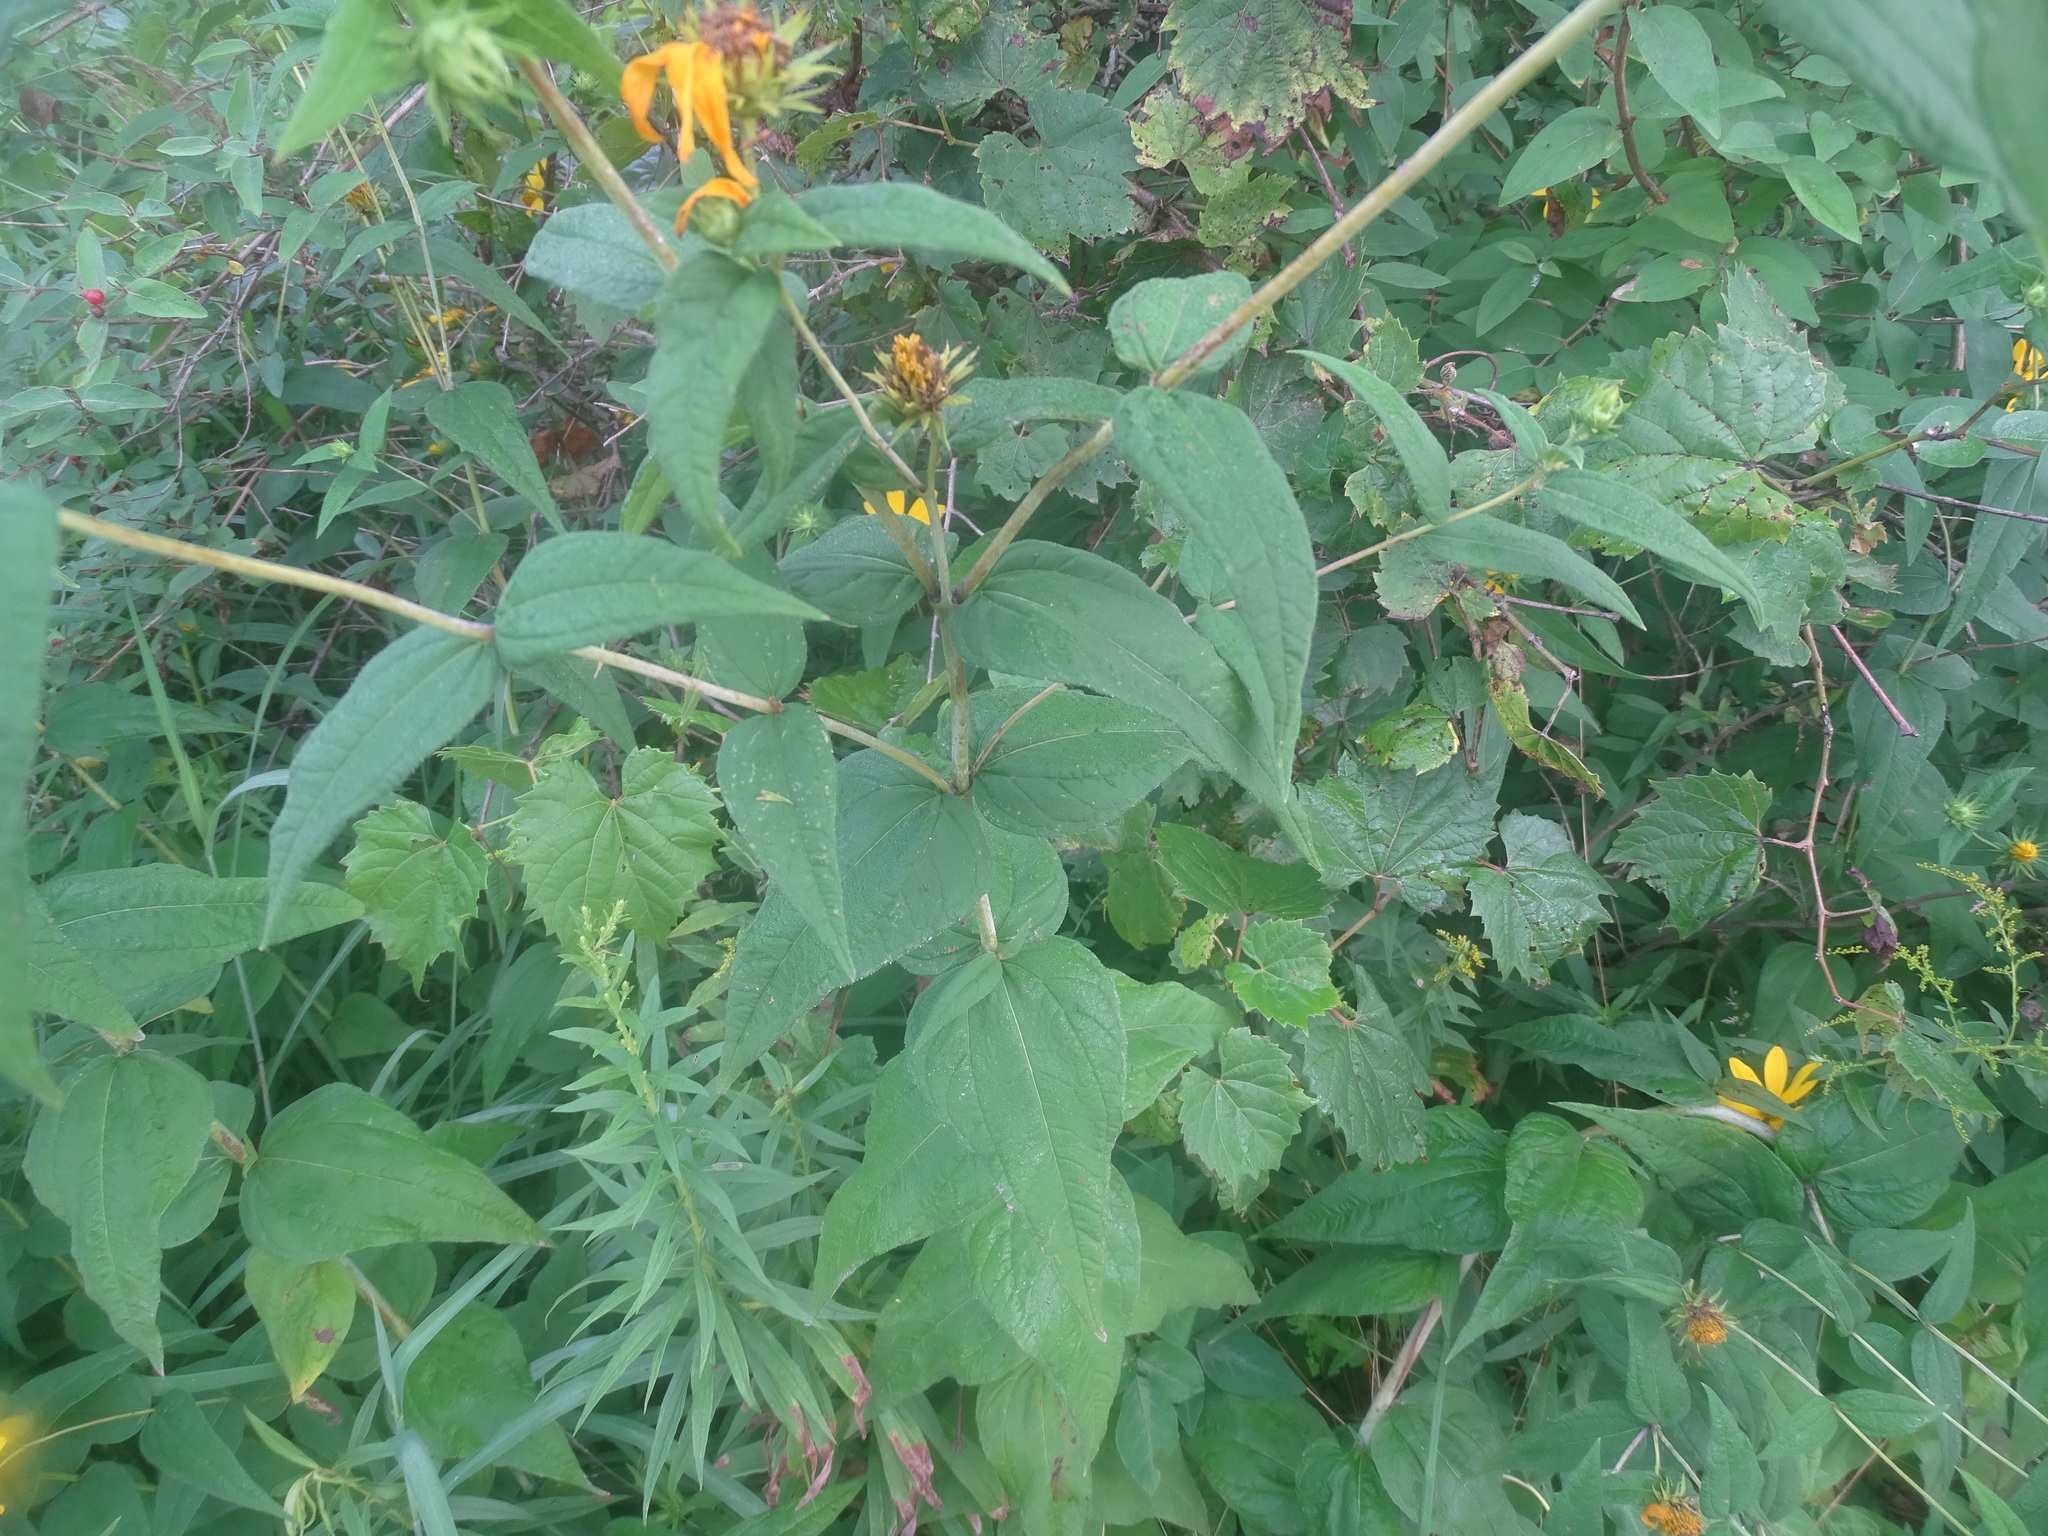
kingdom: Plantae
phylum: Tracheophyta
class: Magnoliopsida
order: Asterales
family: Asteraceae
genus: Helianthus
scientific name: Helianthus divaricatus
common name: Divergent sunflower
